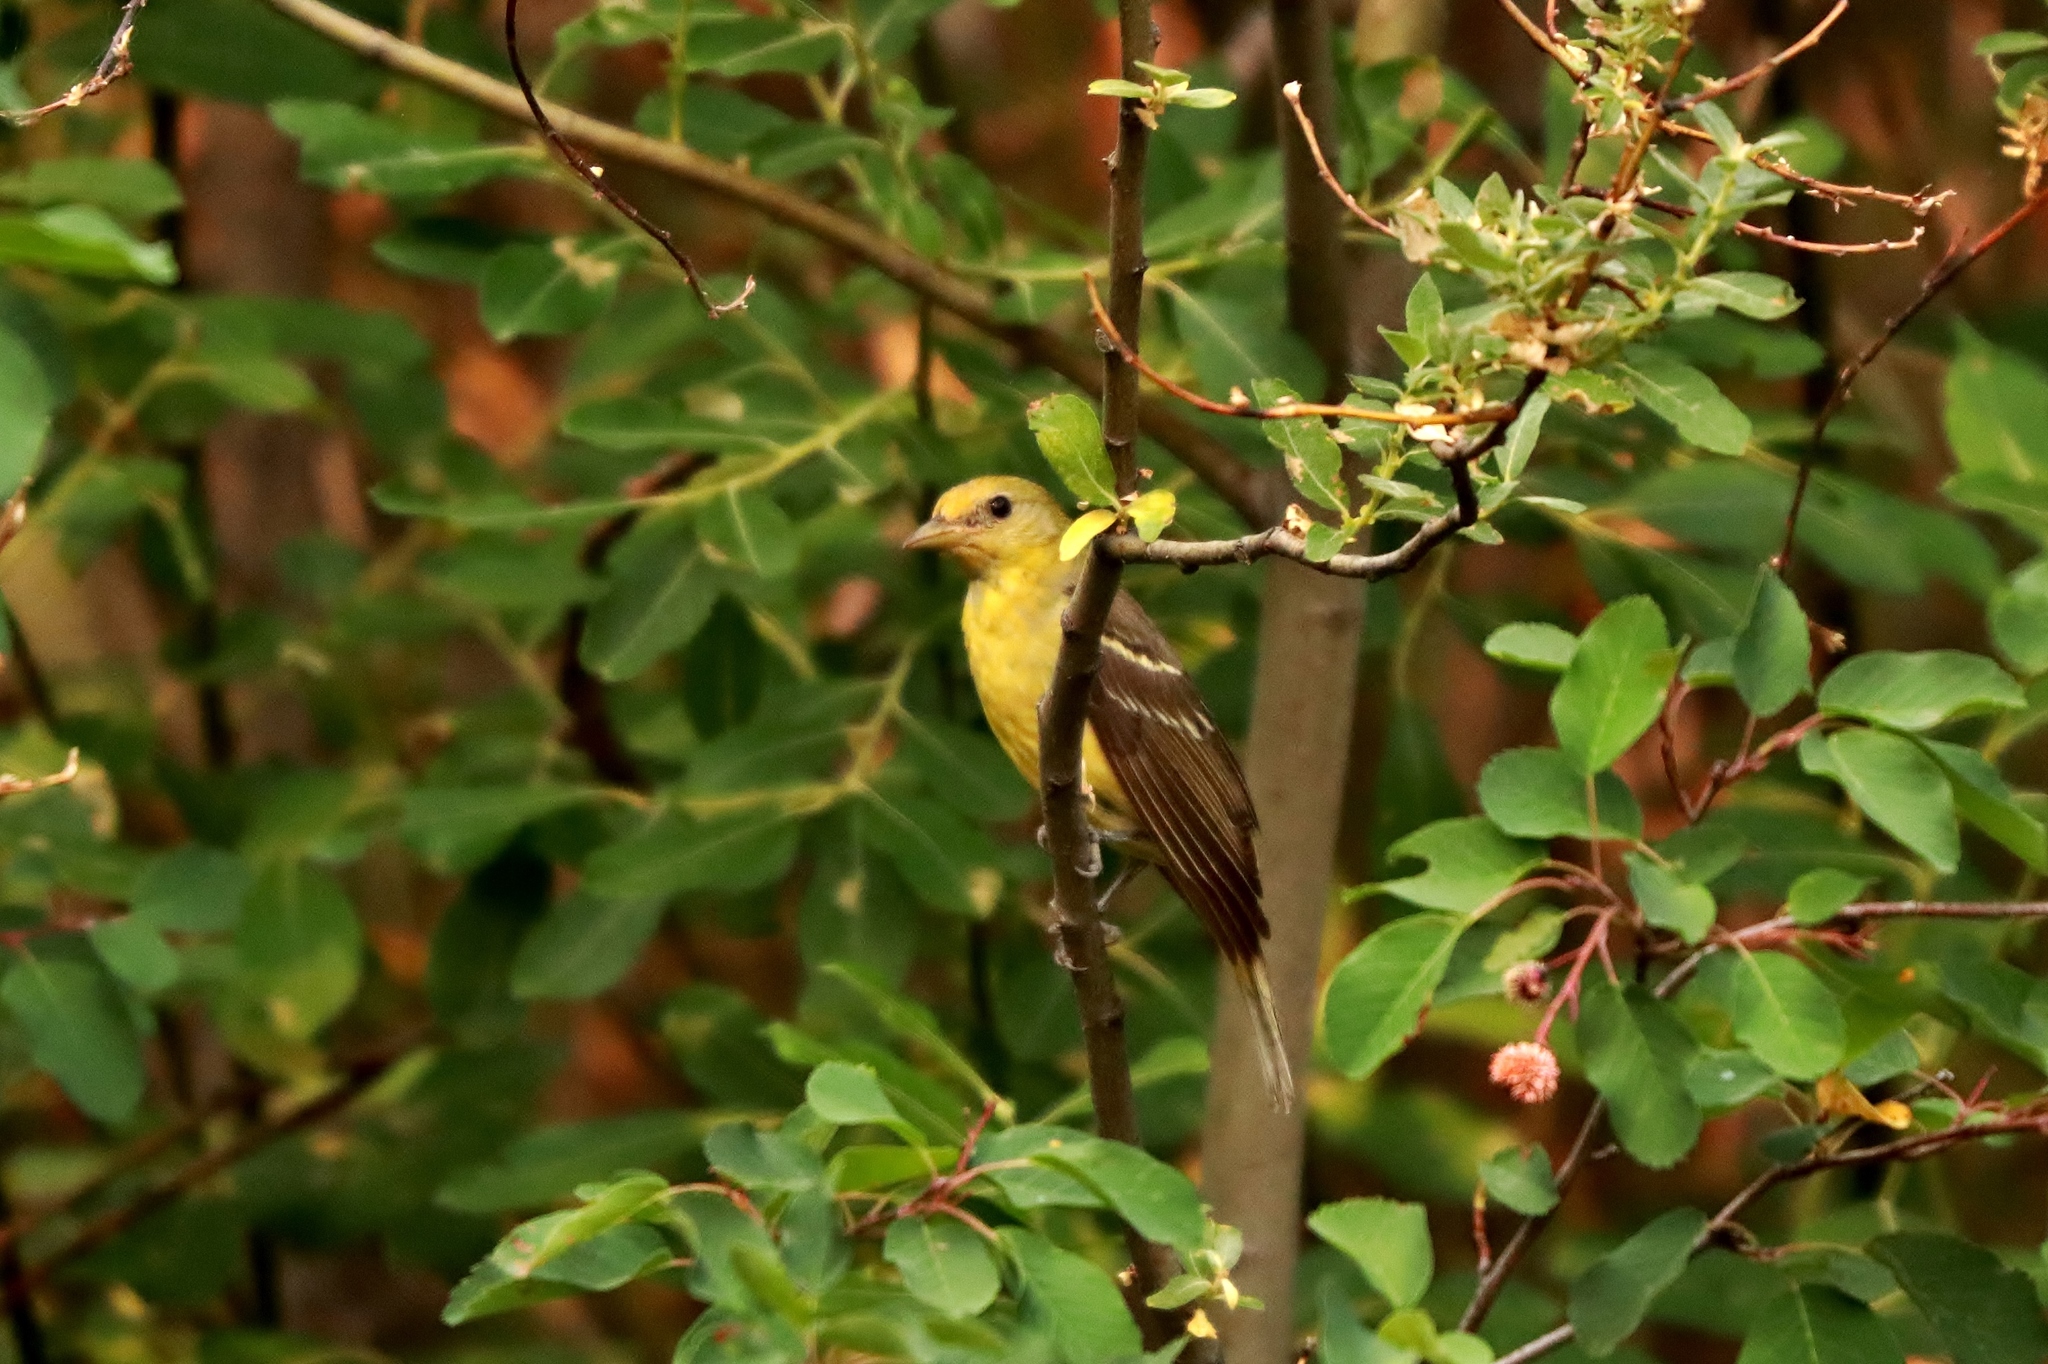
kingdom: Animalia
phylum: Chordata
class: Aves
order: Passeriformes
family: Cardinalidae
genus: Piranga
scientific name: Piranga ludoviciana
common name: Western tanager
